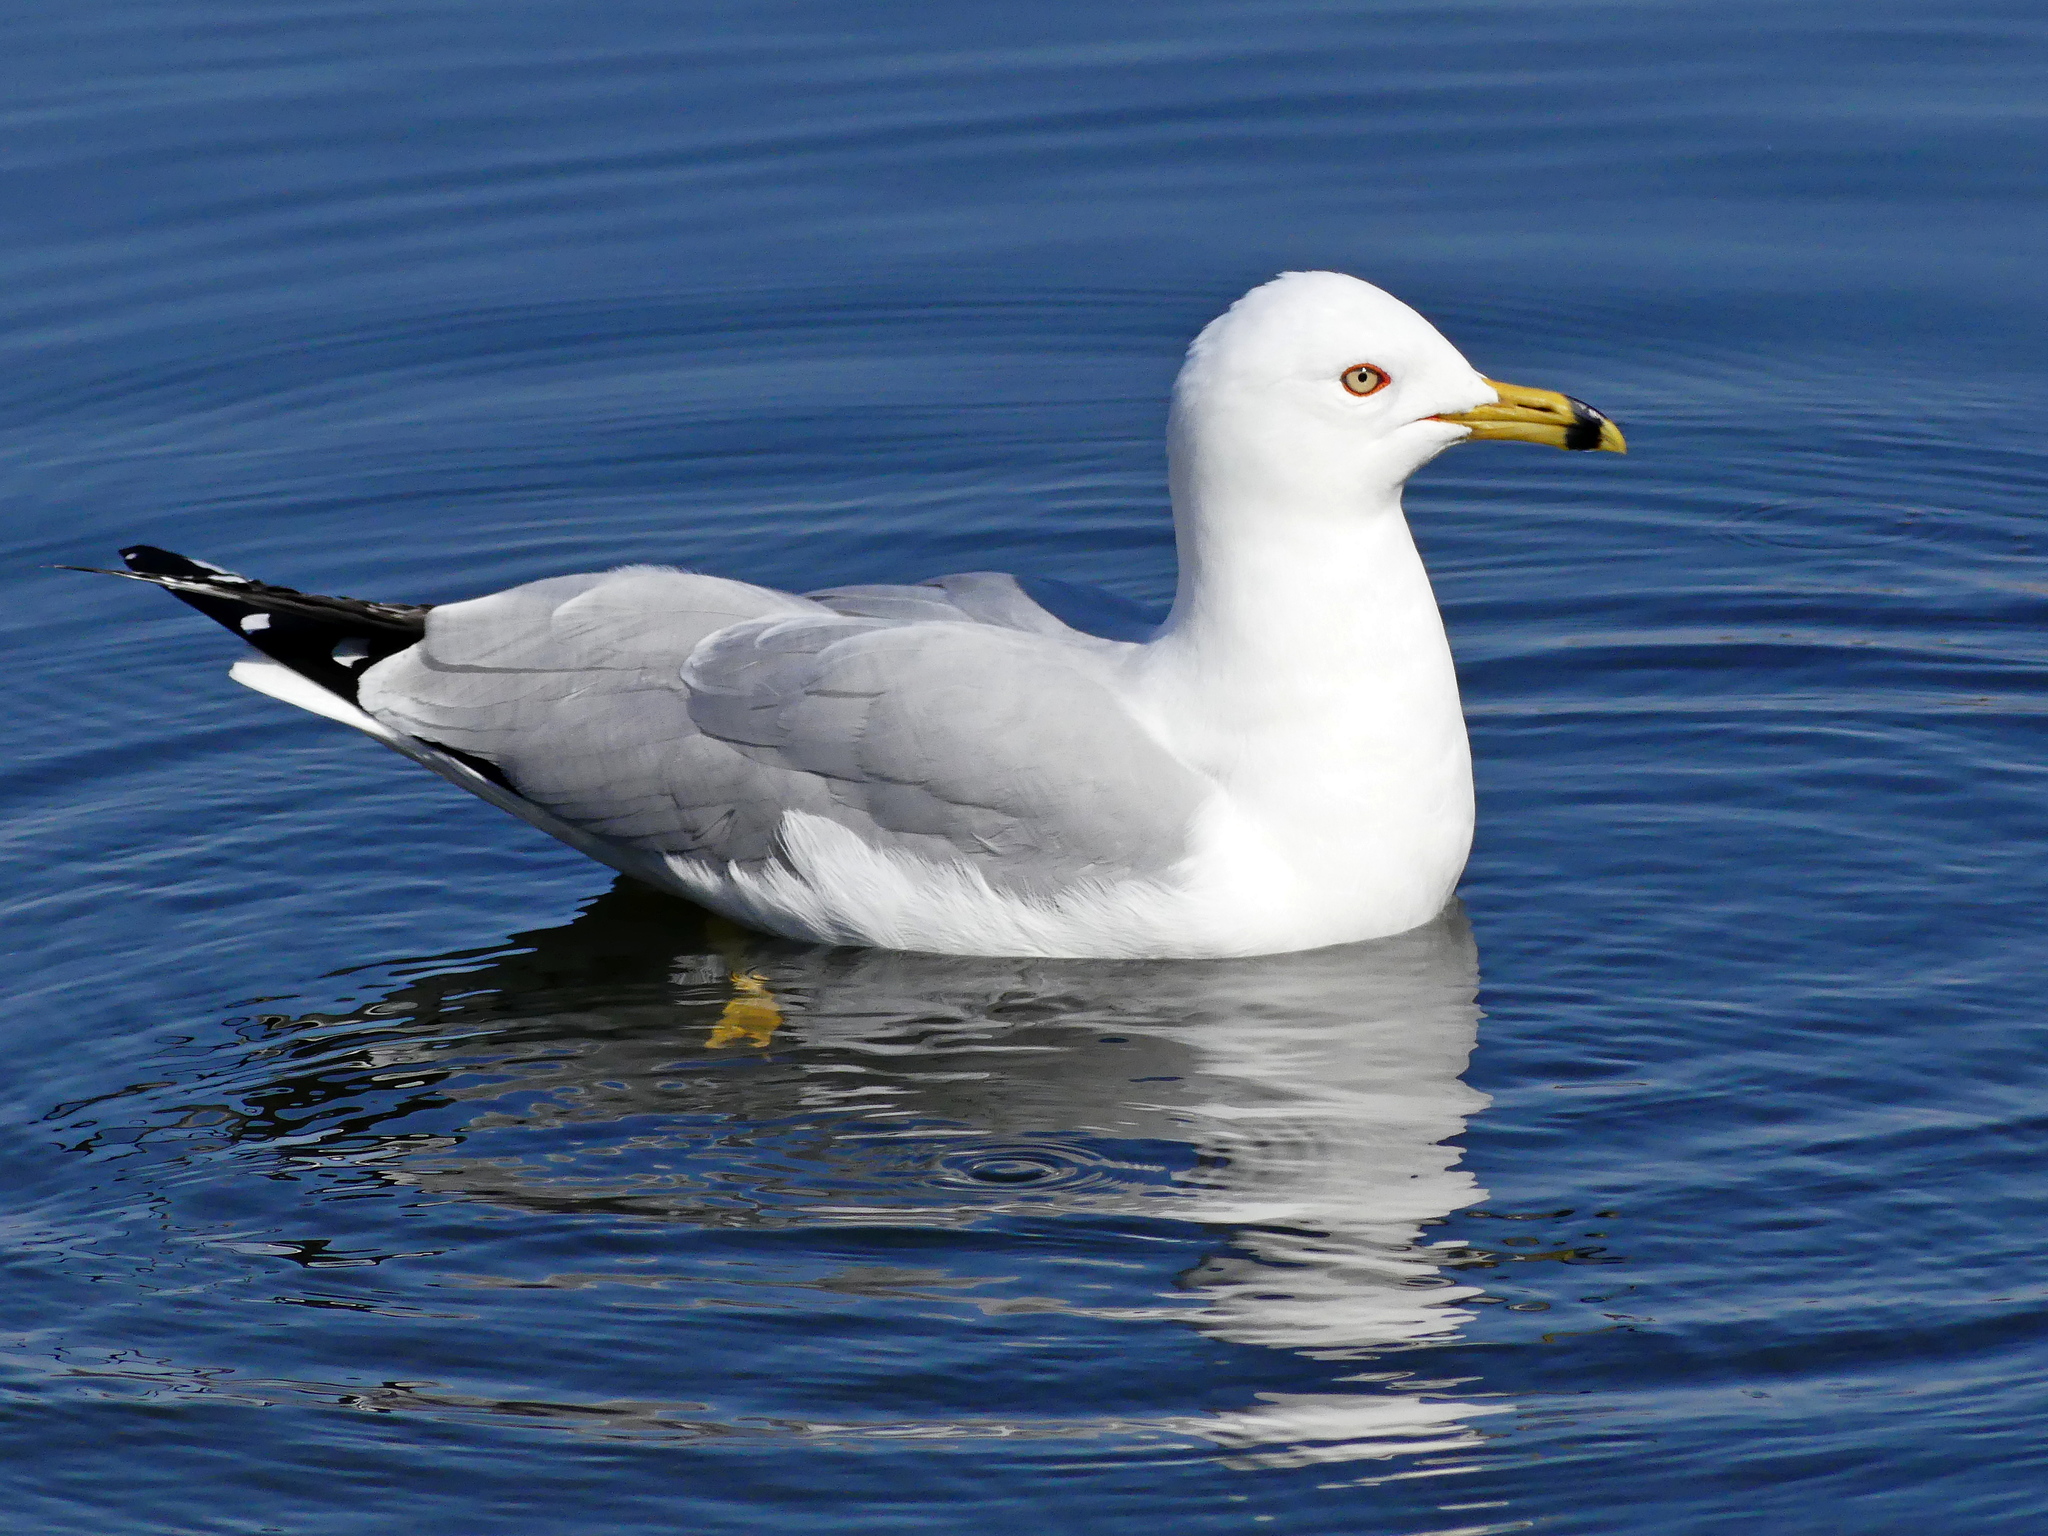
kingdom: Animalia
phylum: Chordata
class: Aves
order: Charadriiformes
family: Laridae
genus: Larus
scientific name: Larus delawarensis
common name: Ring-billed gull
